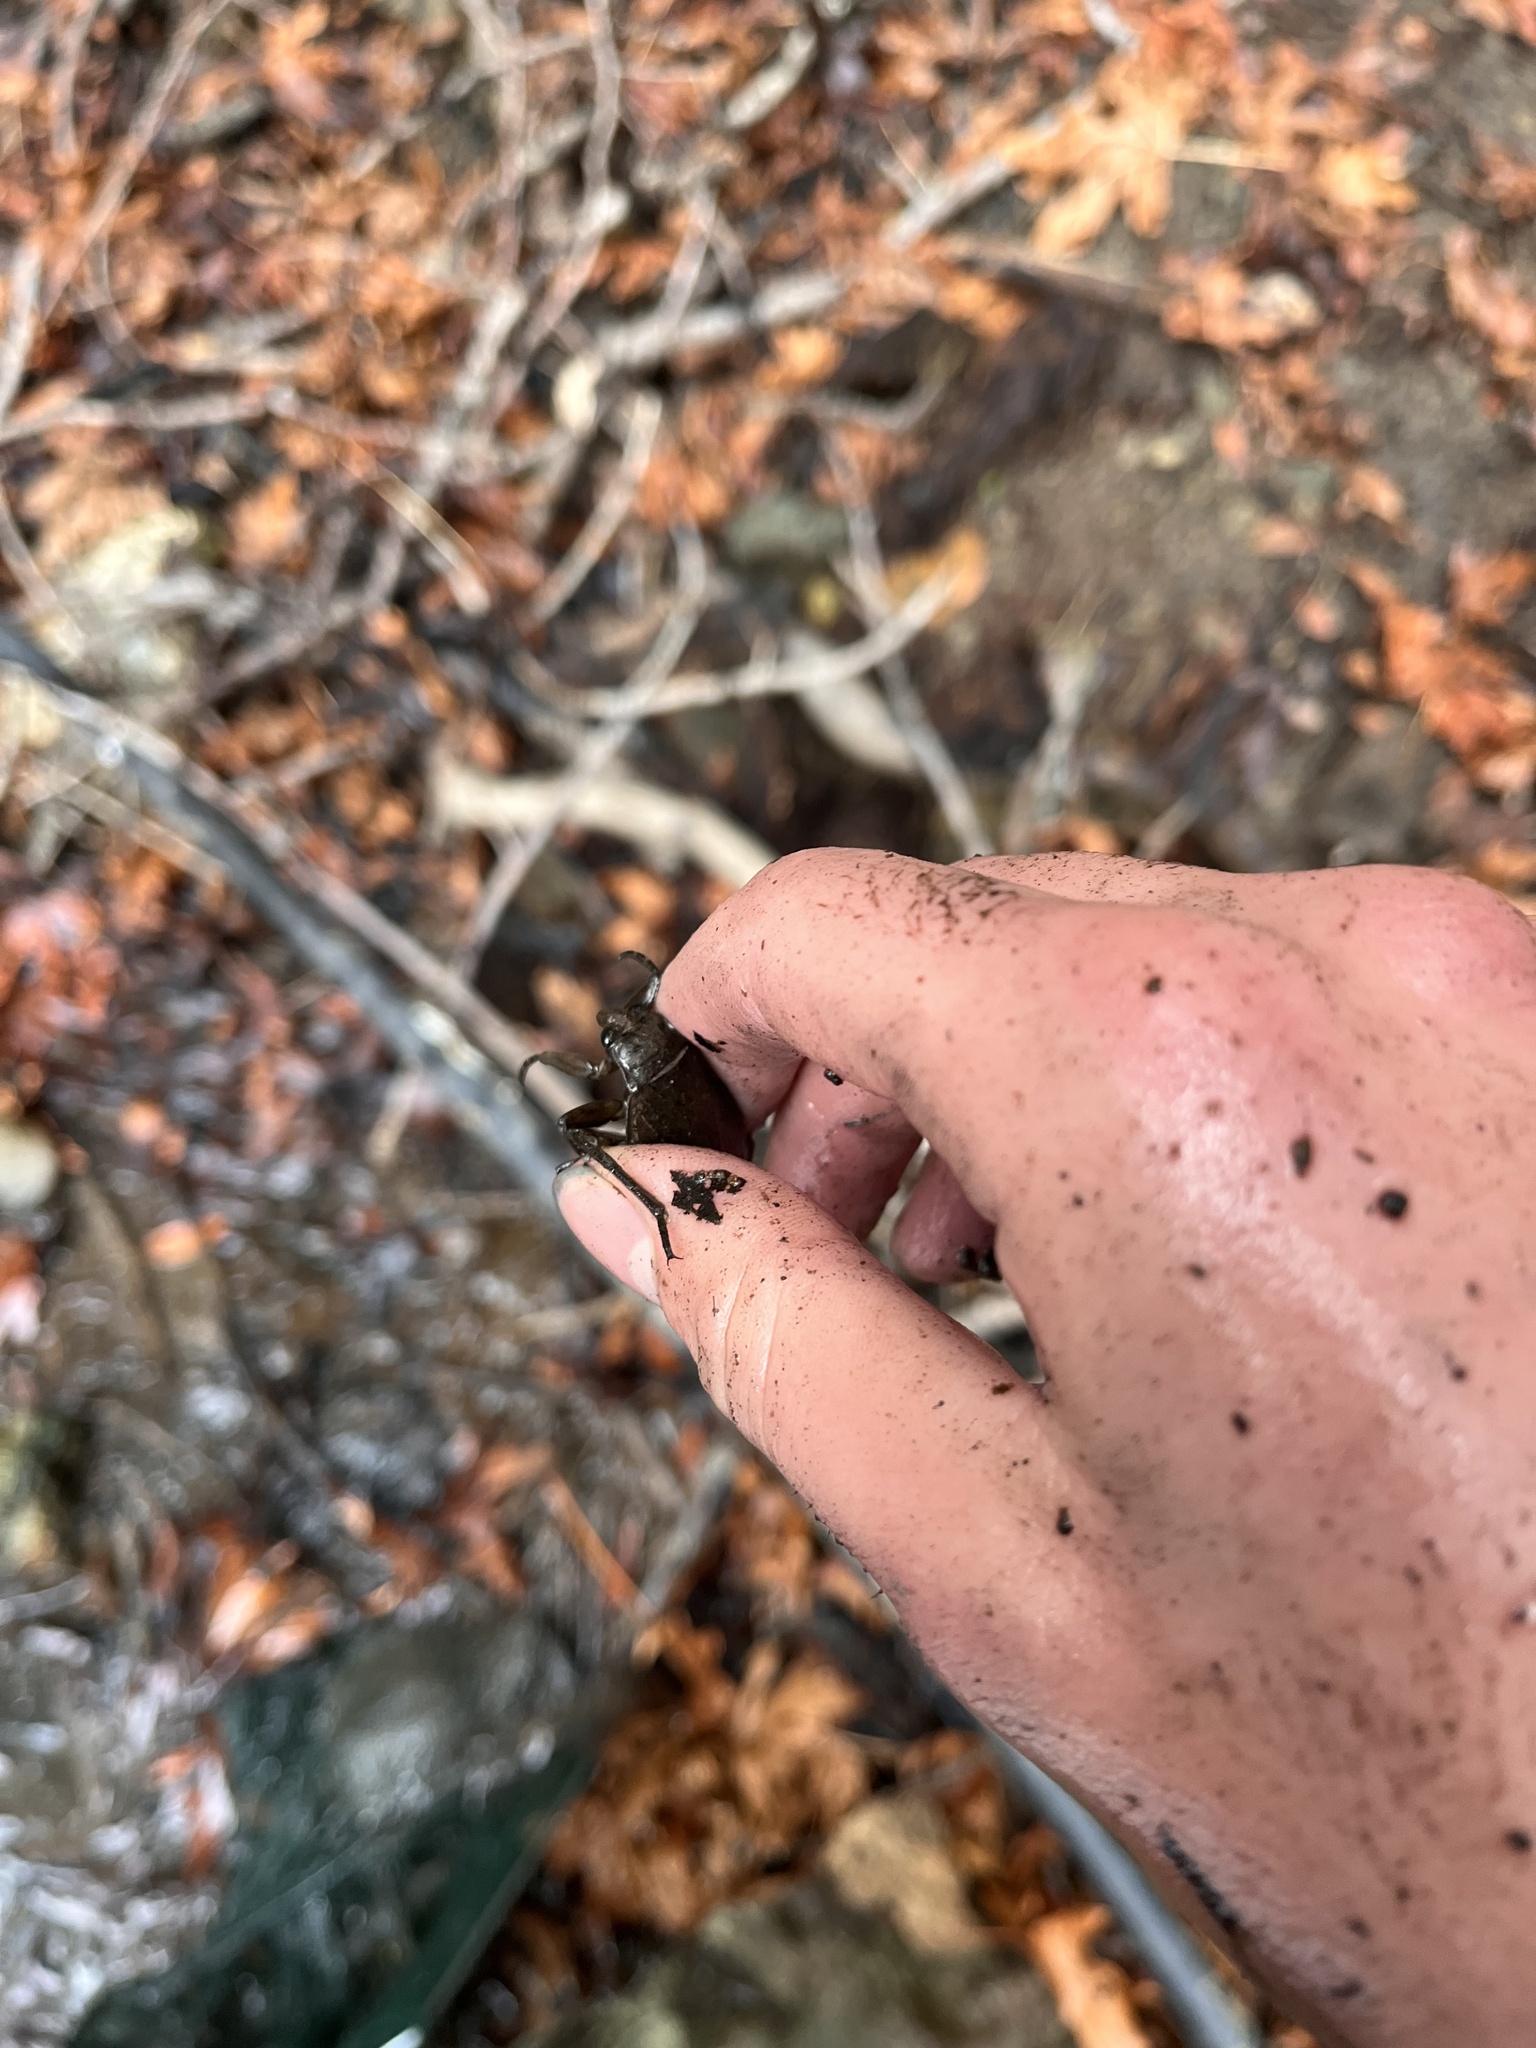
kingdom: Animalia
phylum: Arthropoda
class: Insecta
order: Hemiptera
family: Belostomatidae
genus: Abedus
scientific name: Abedus indentatus
